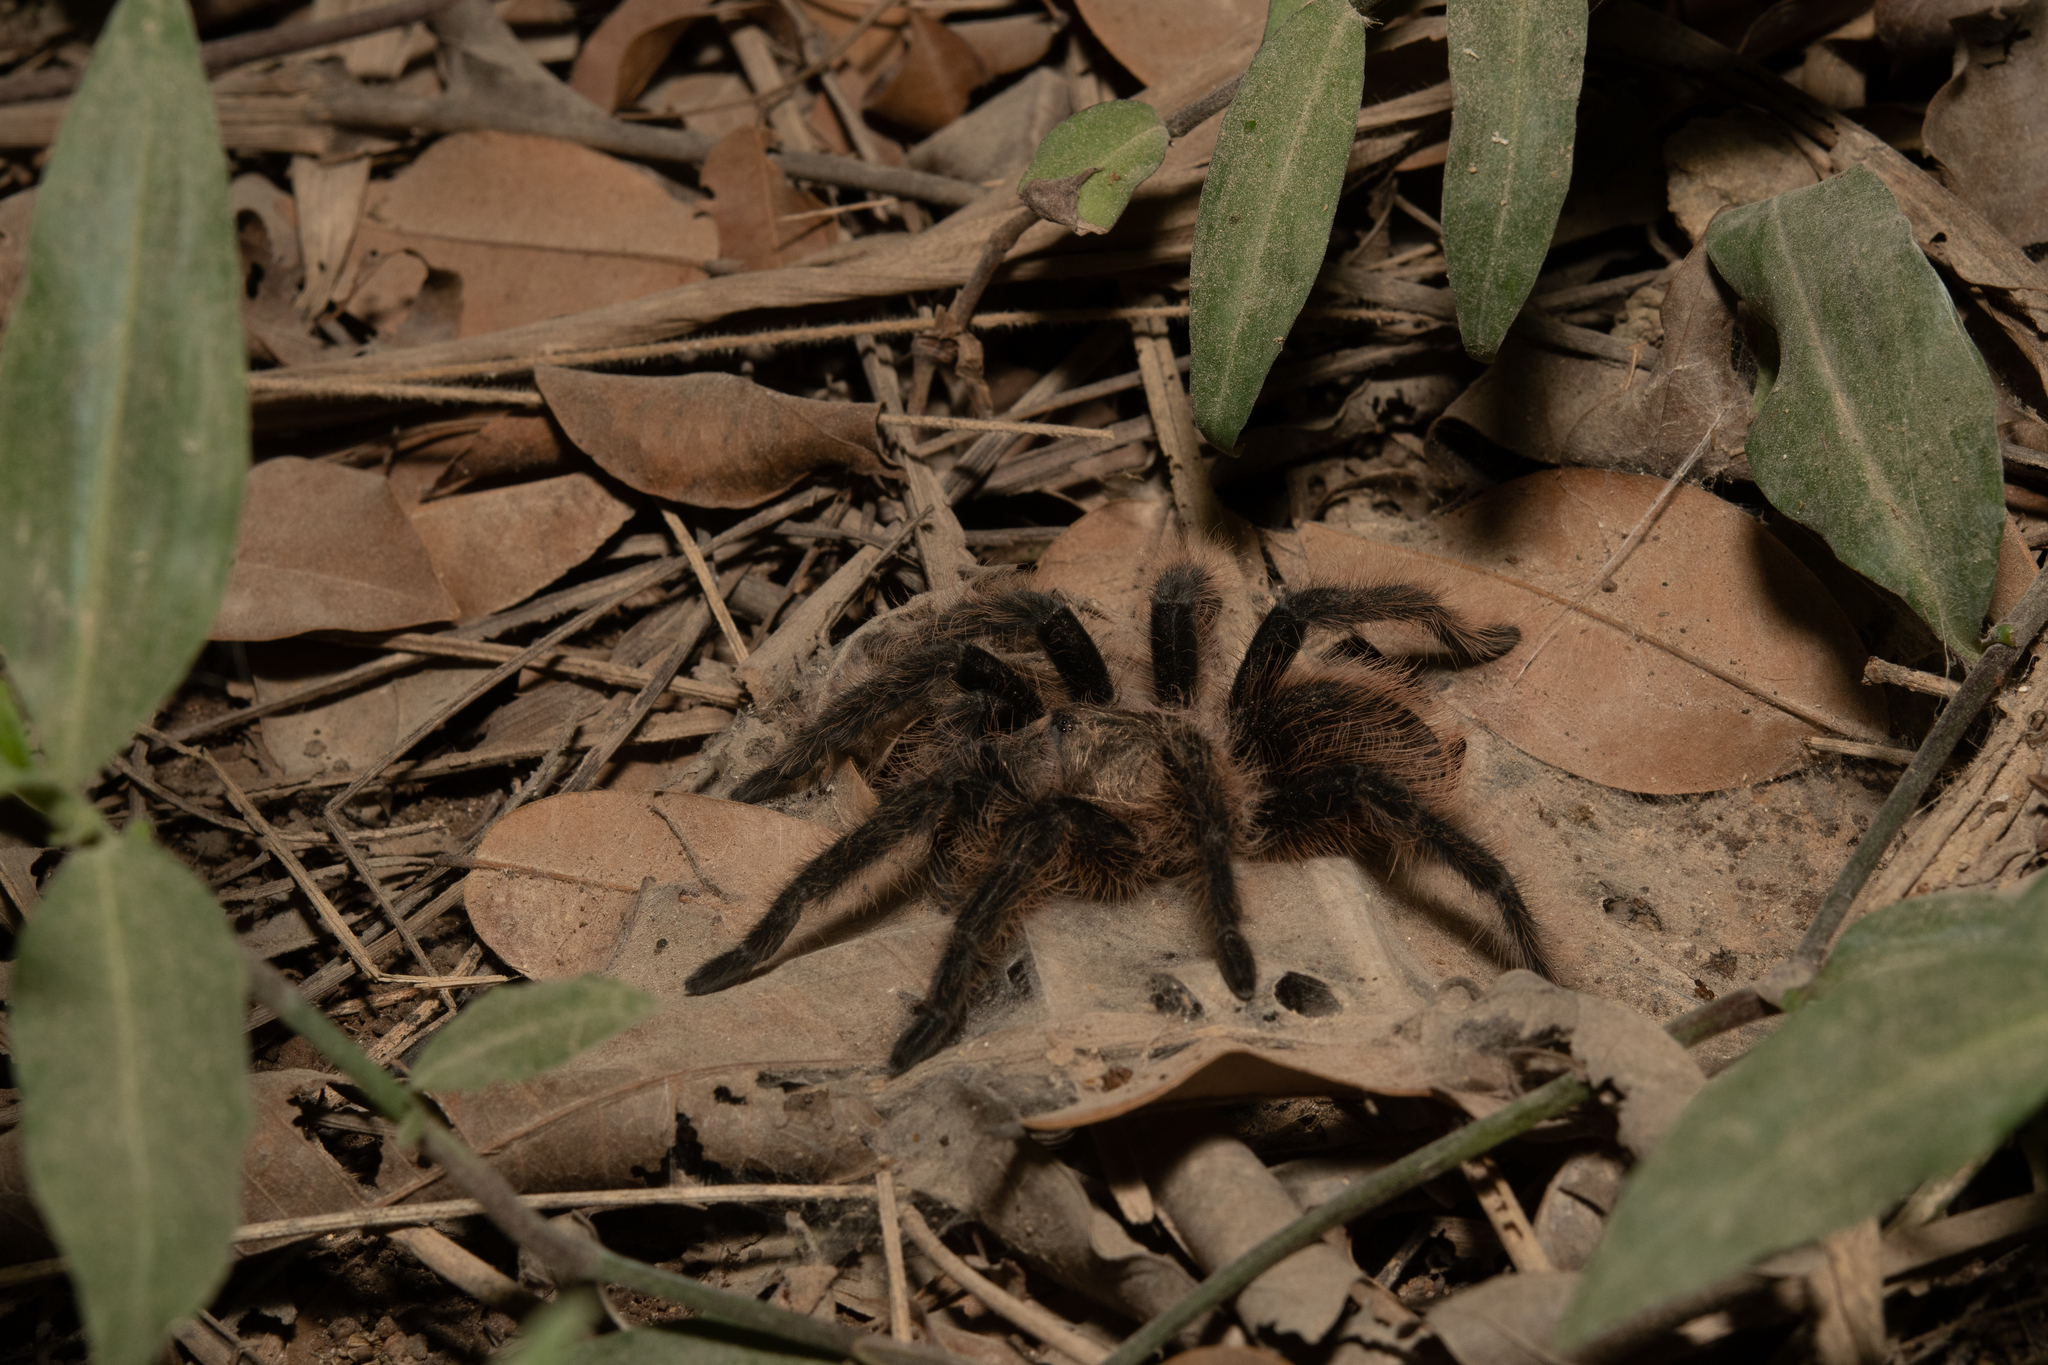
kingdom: Animalia
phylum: Arthropoda
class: Arachnida
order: Araneae
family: Theraphosidae
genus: Tliltocatl
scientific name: Tliltocatl albopilosus
